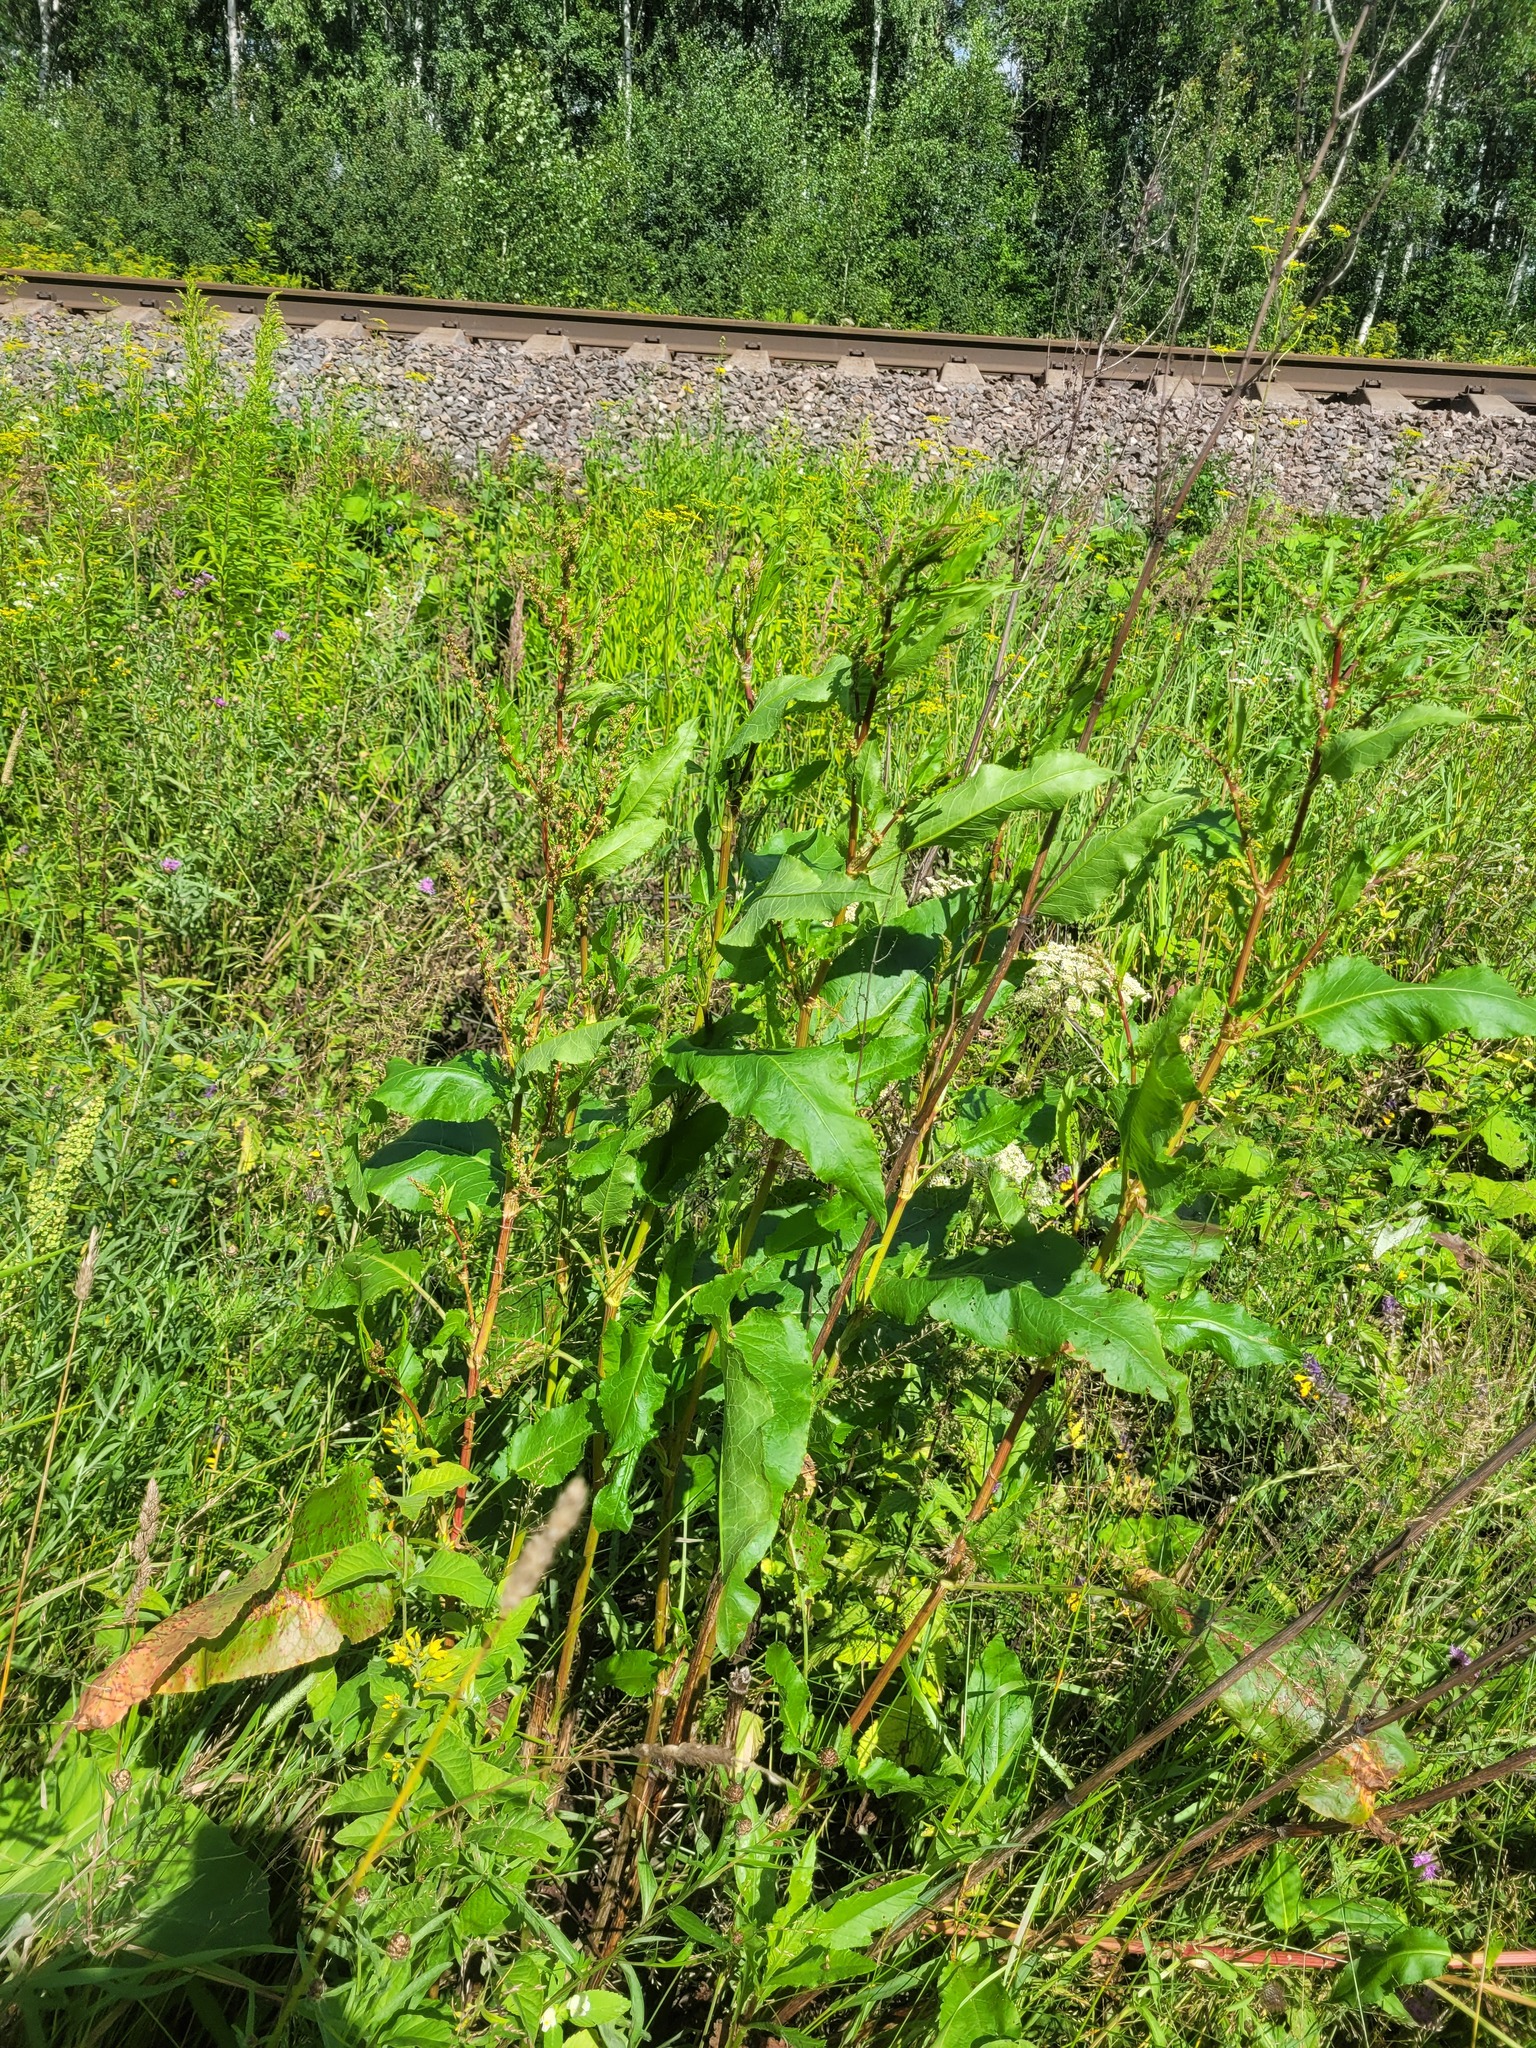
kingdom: Plantae
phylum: Tracheophyta
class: Magnoliopsida
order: Caryophyllales
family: Polygonaceae
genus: Rumex
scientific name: Rumex obtusifolius
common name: Bitter dock
